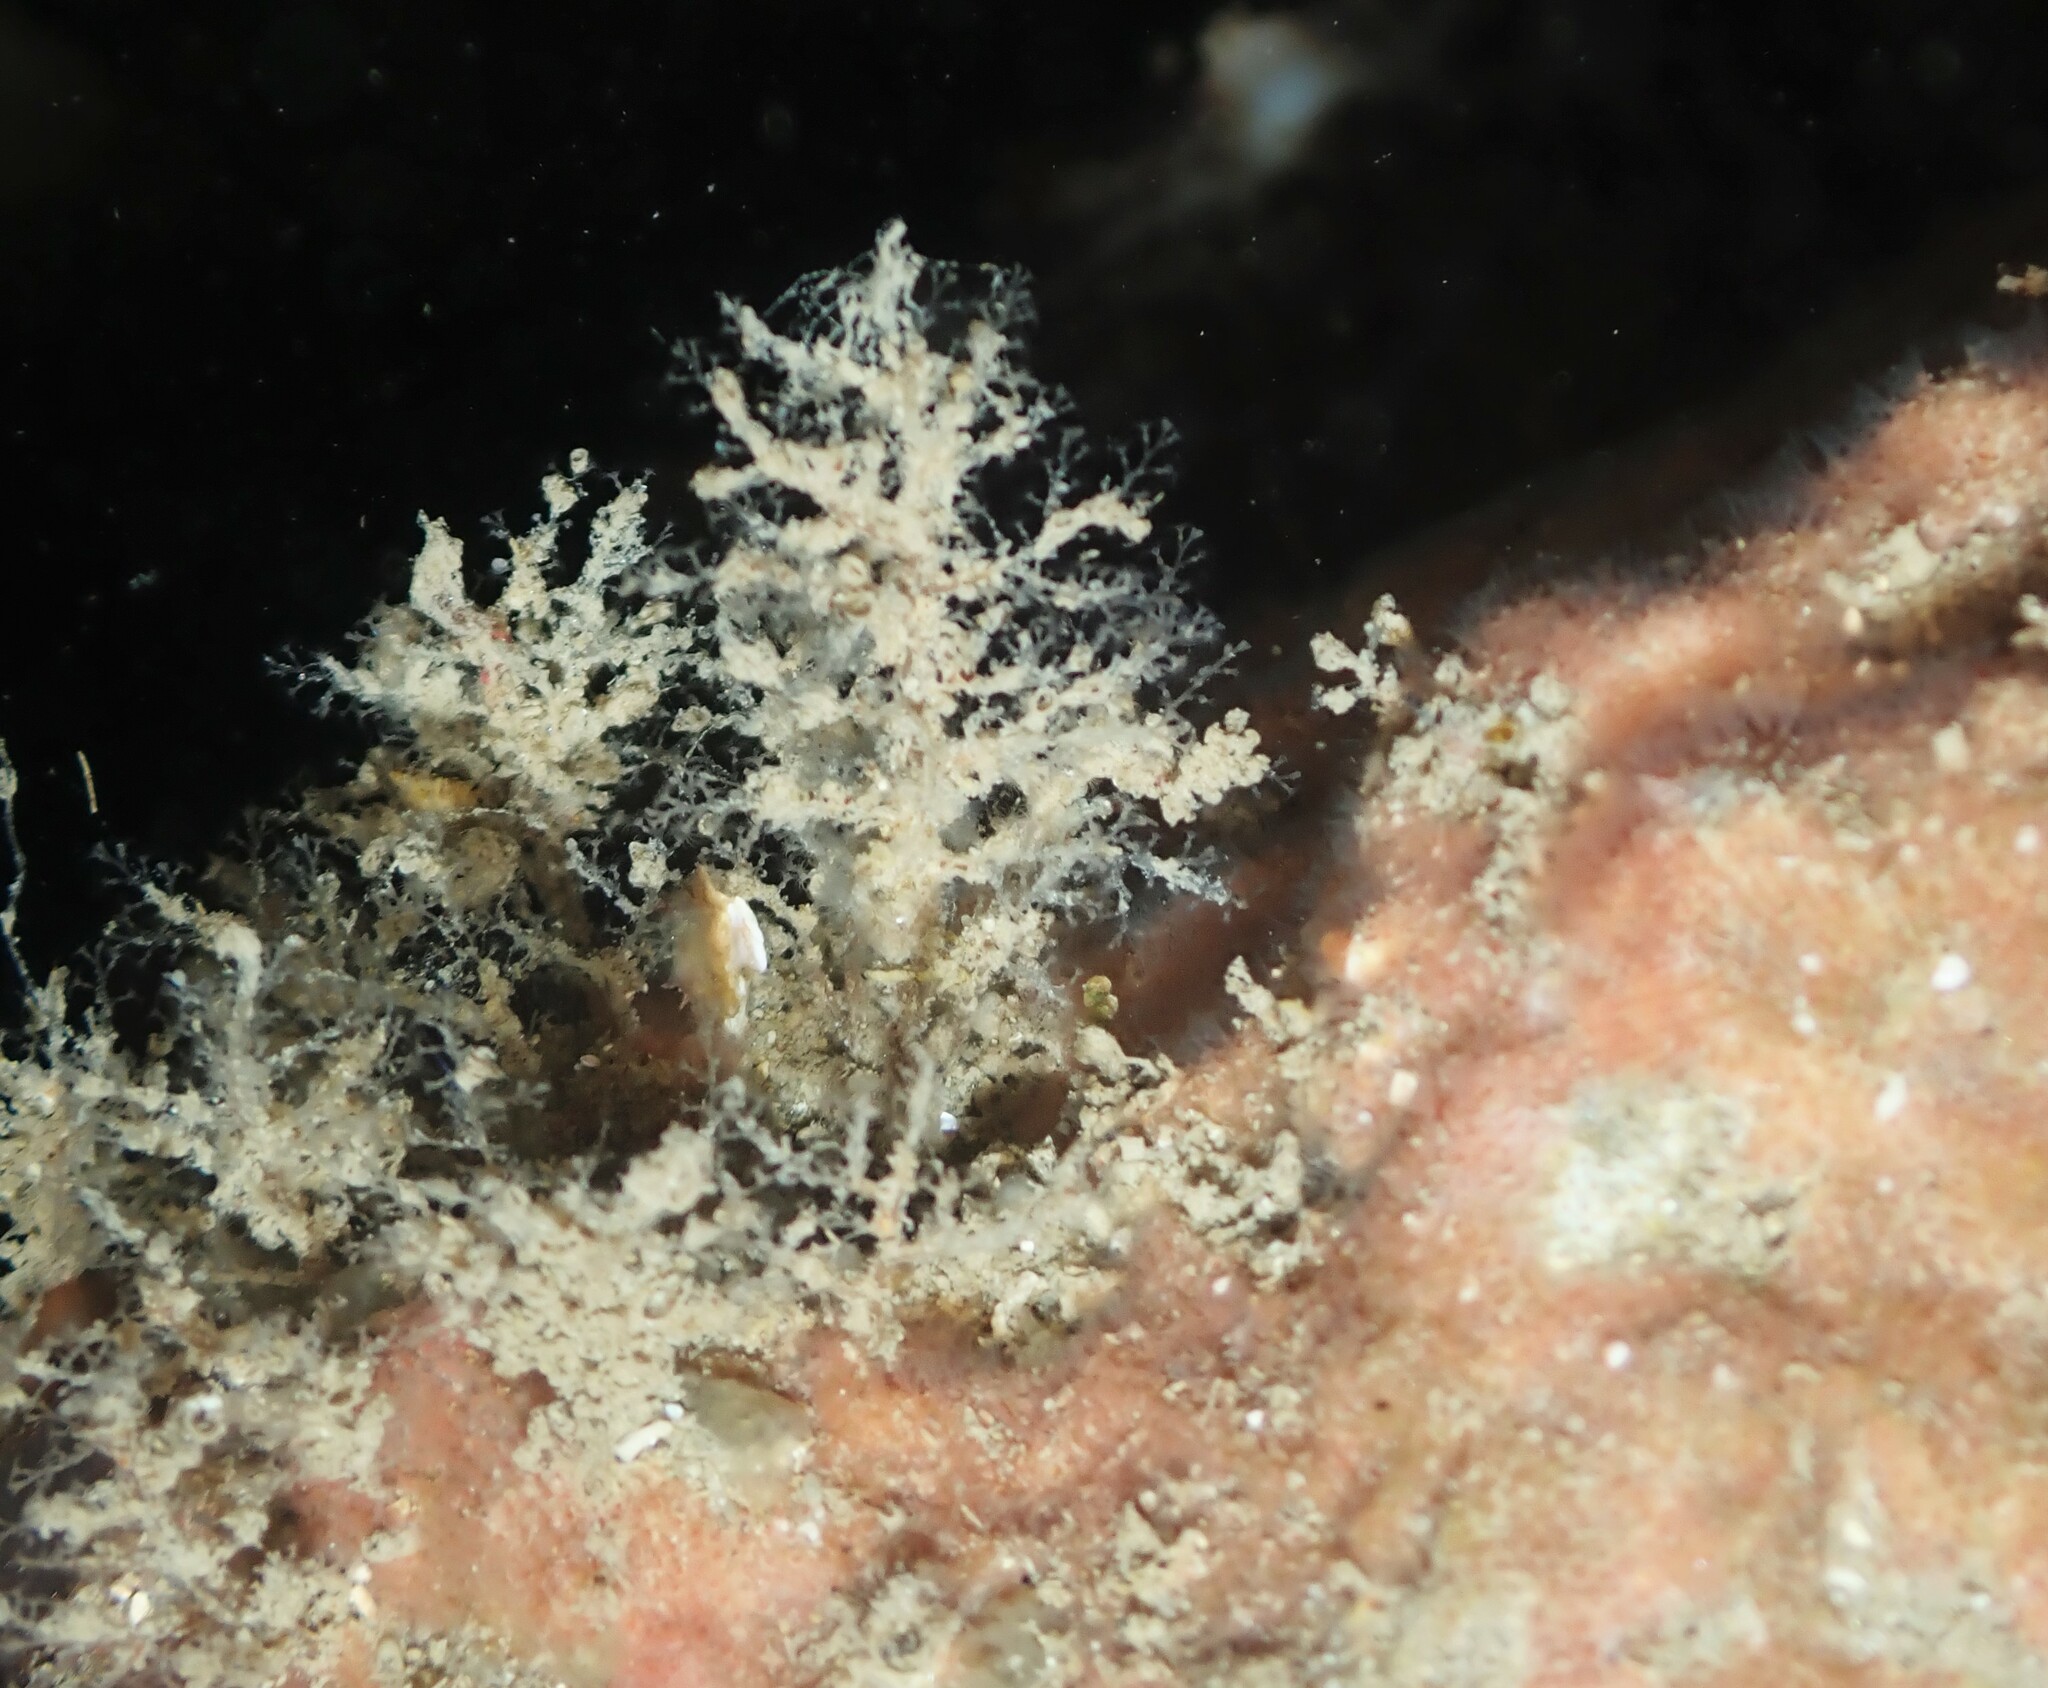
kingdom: Animalia
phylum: Cnidaria
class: Hydrozoa
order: Leptothecata
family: Campanulariidae
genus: Obelia
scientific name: Obelia dichotoma
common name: Sea thread hydroid
